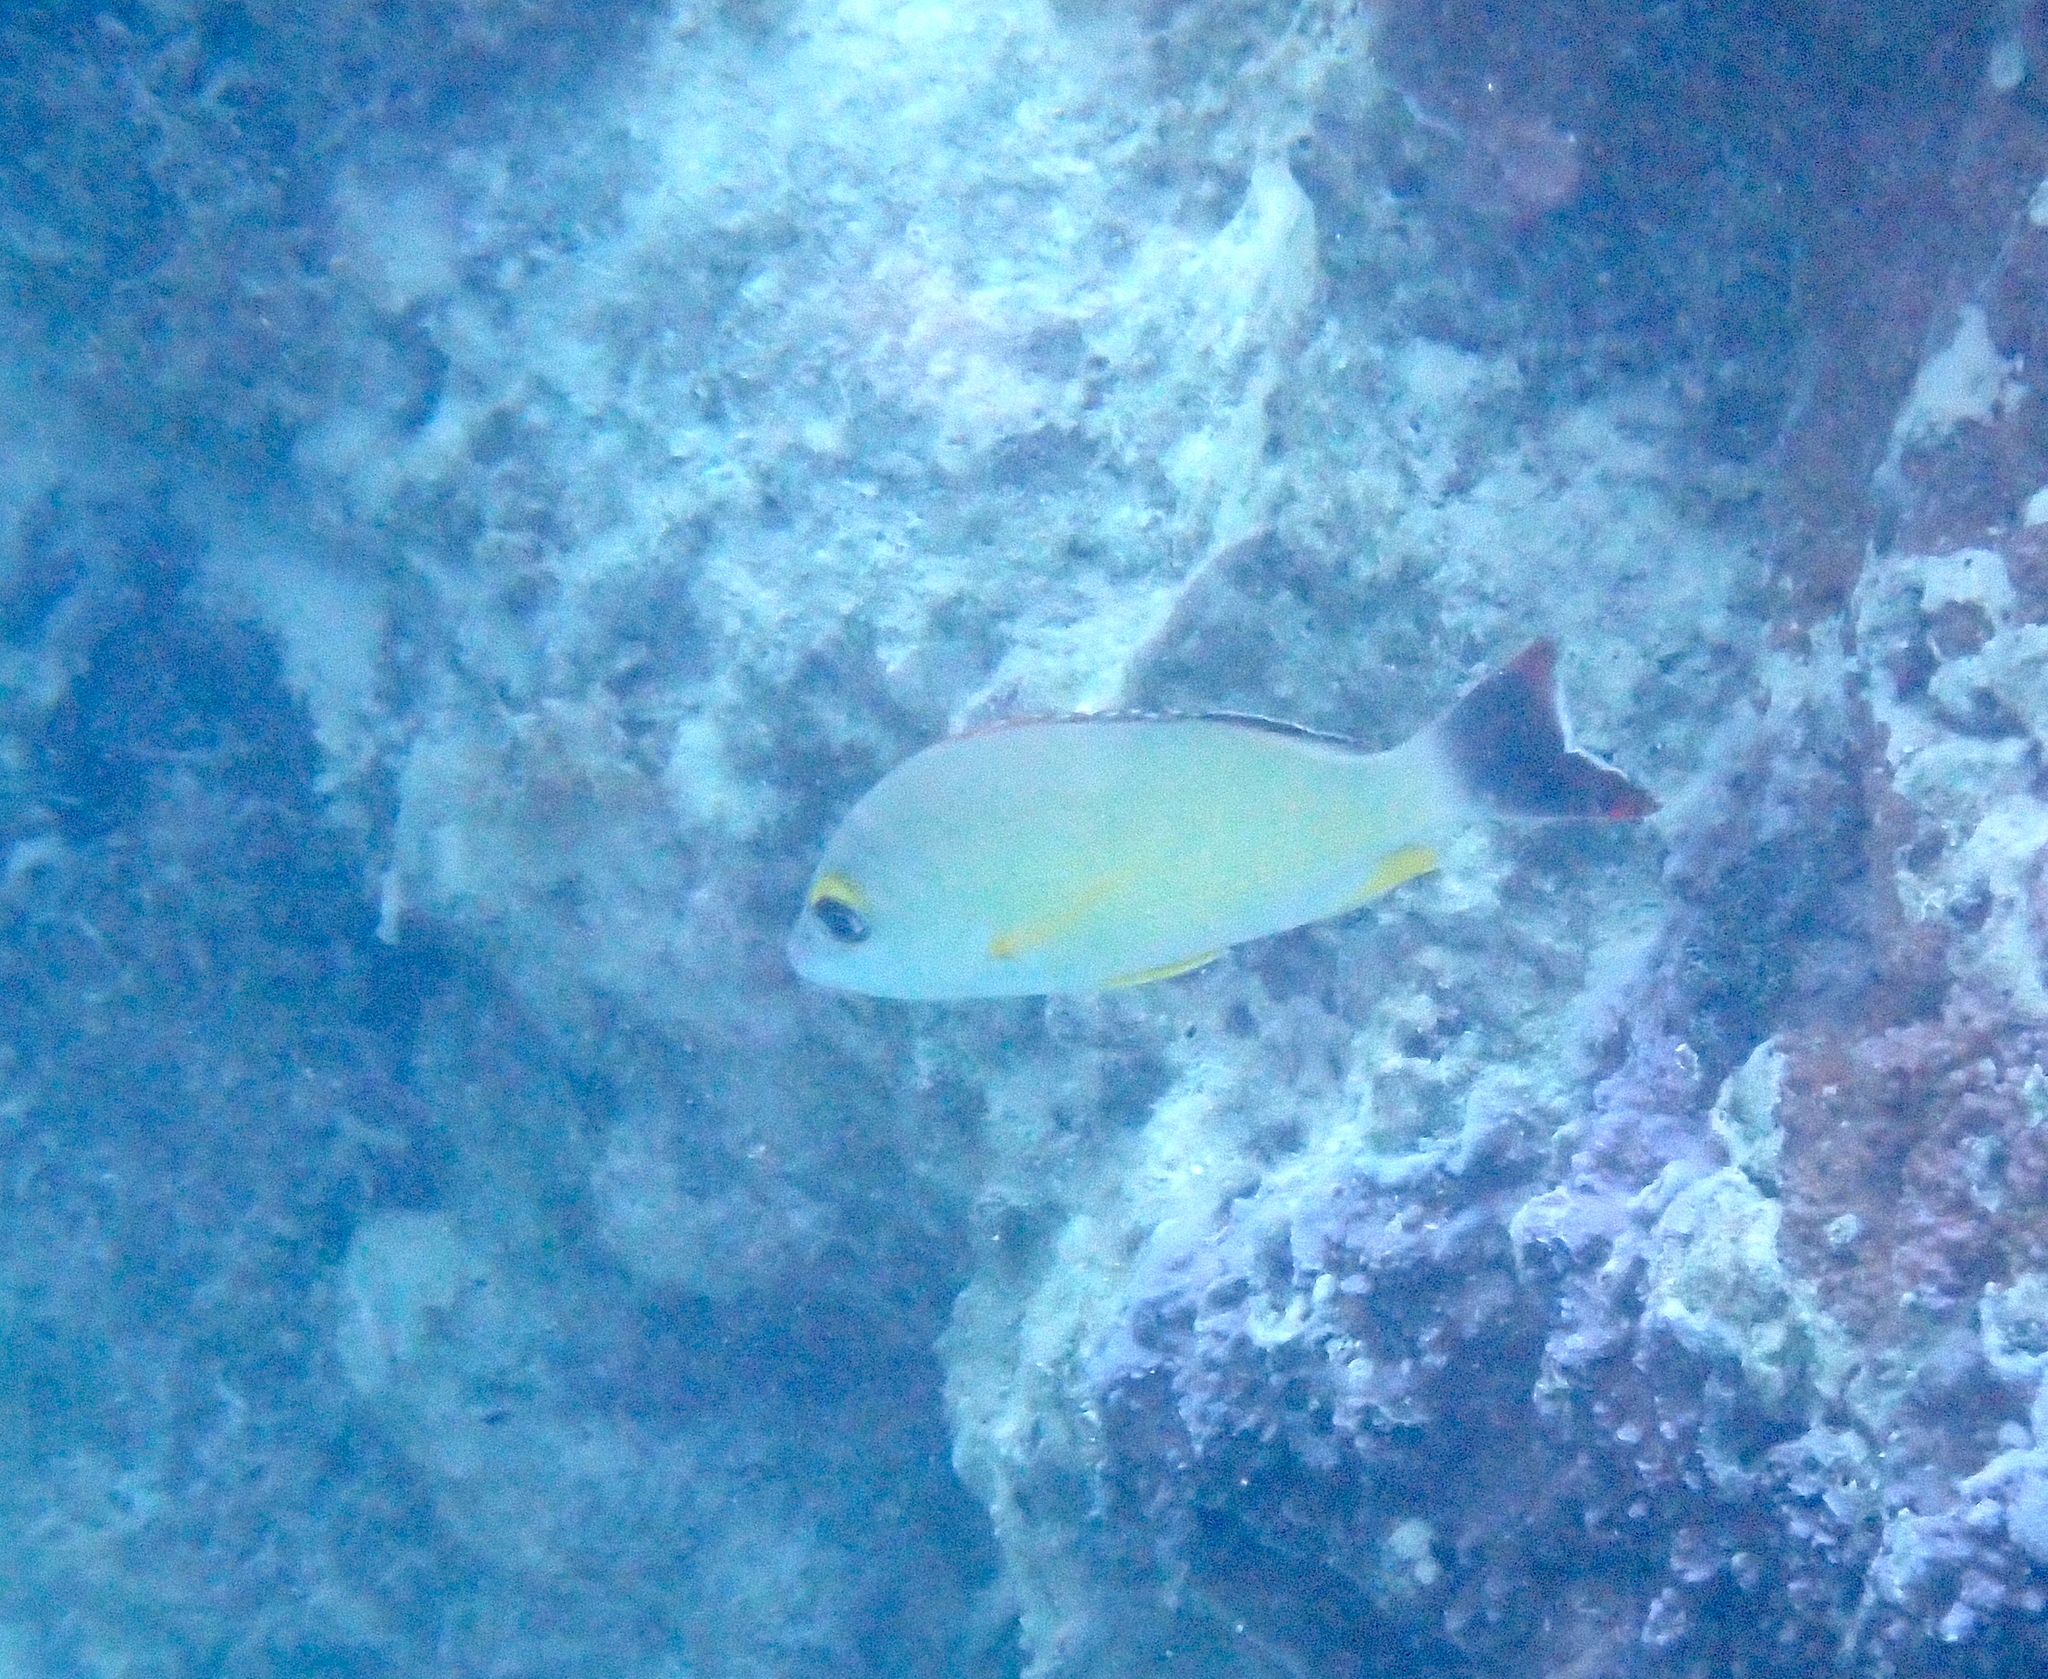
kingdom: Animalia
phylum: Chordata
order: Perciformes
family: Lutjanidae
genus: Lutjanus
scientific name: Lutjanus fulvus
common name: Blacktail snapper
